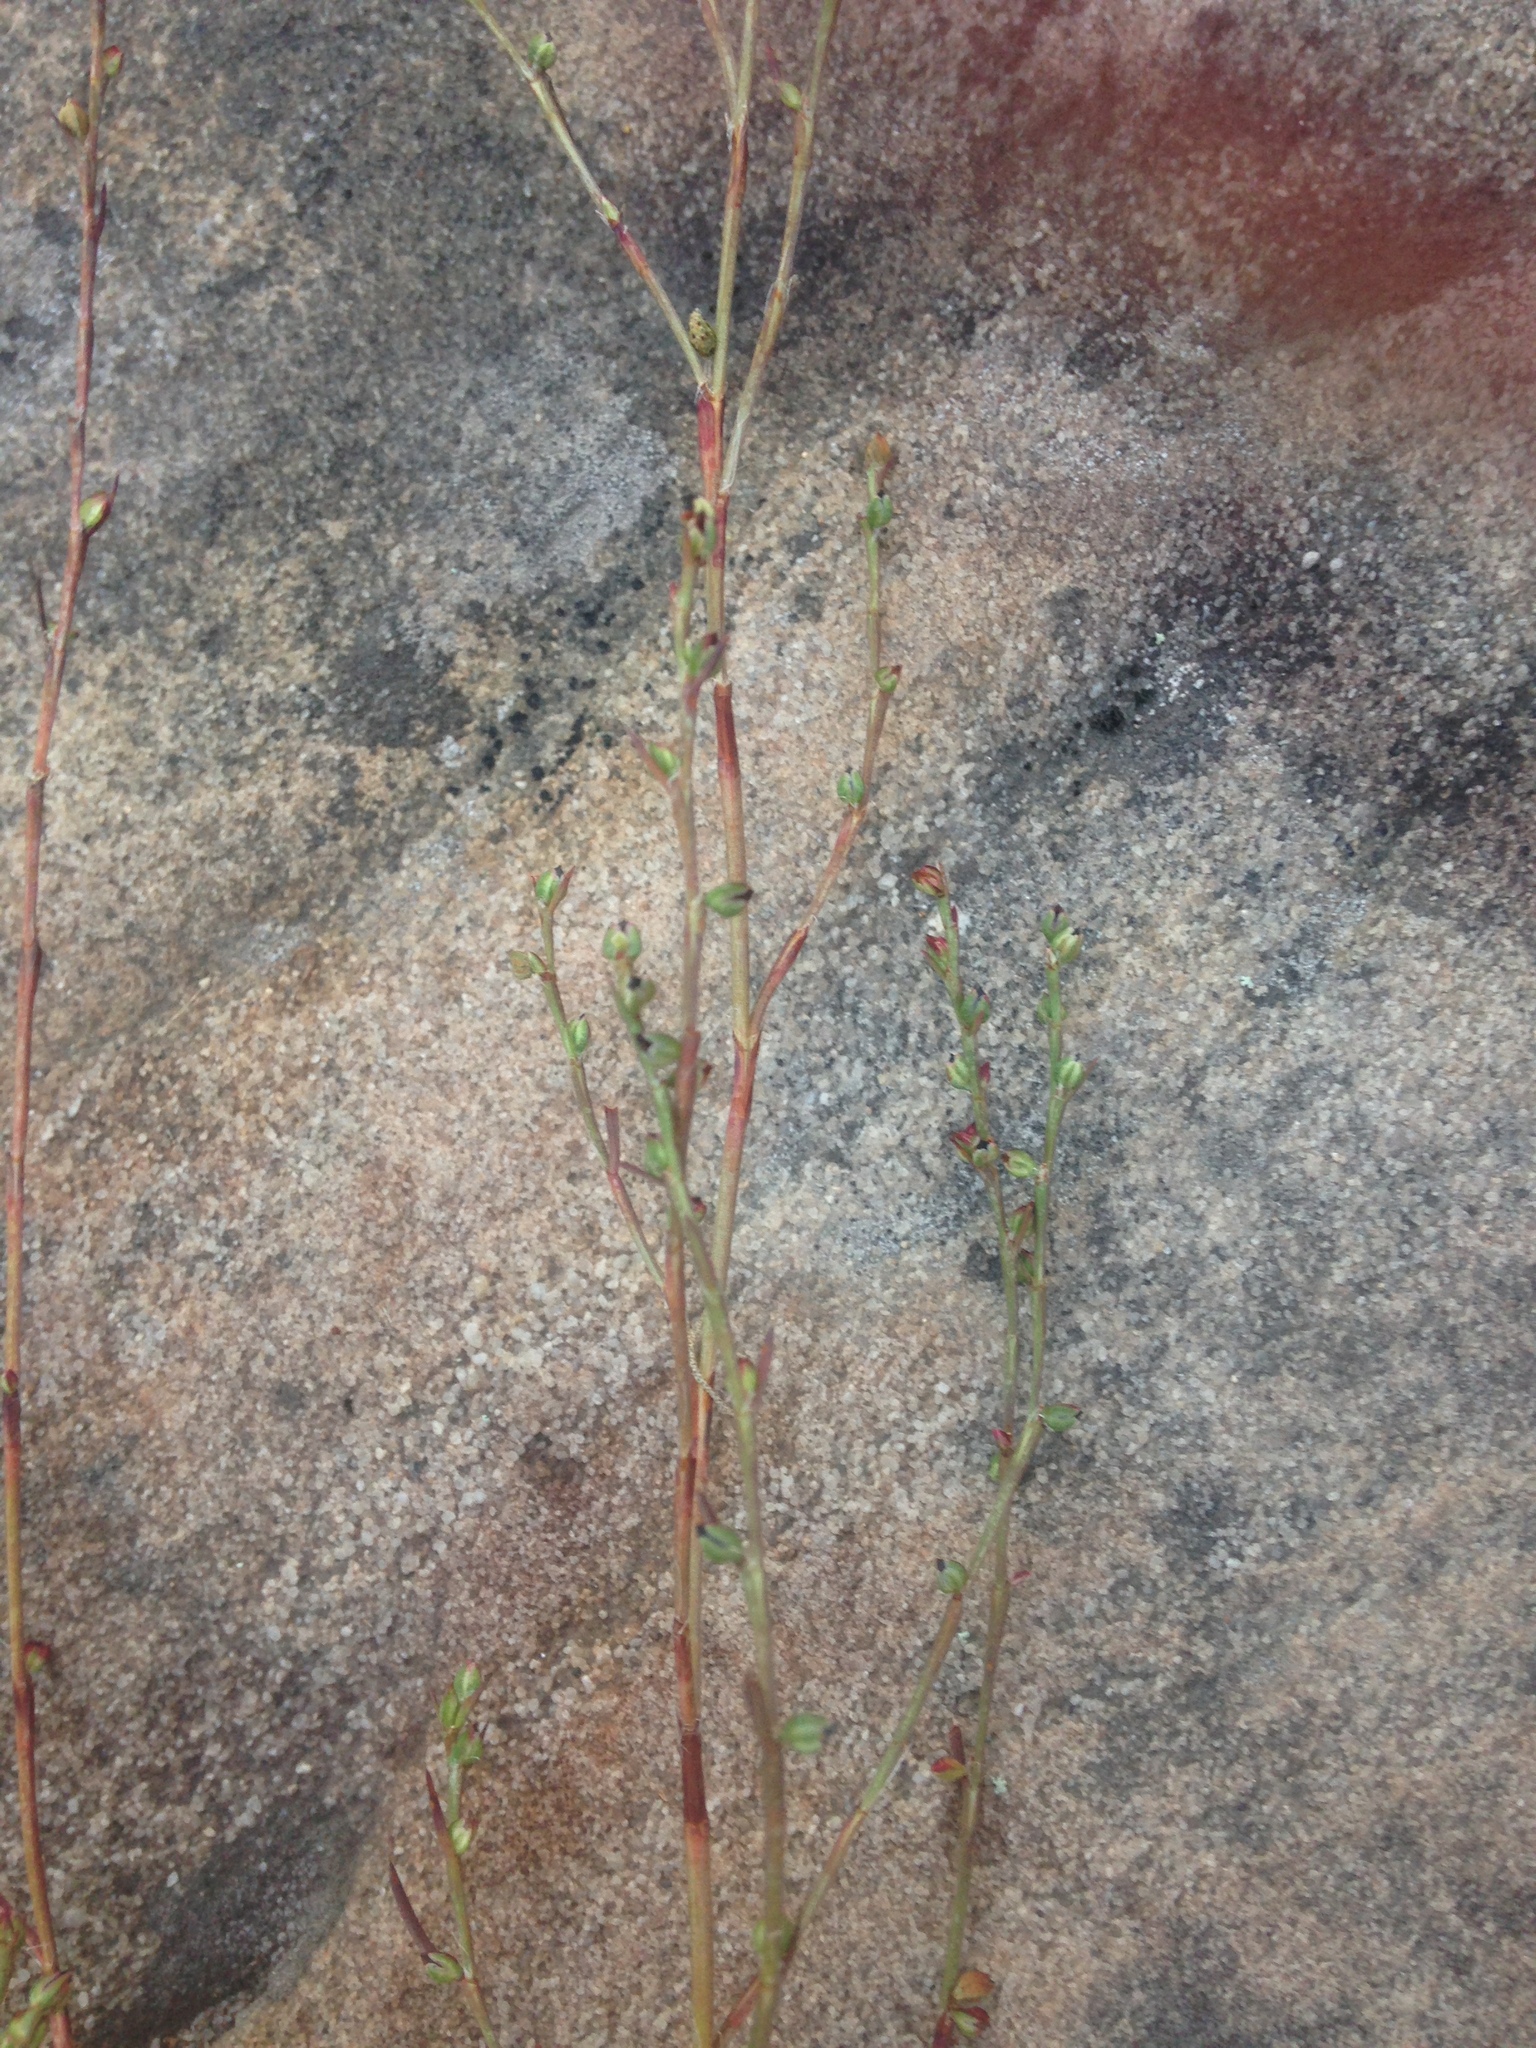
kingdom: Plantae
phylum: Tracheophyta
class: Magnoliopsida
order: Caryophyllales
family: Polygonaceae
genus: Polygonum
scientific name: Polygonum tenue
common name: Pleat-leaved knotweed
